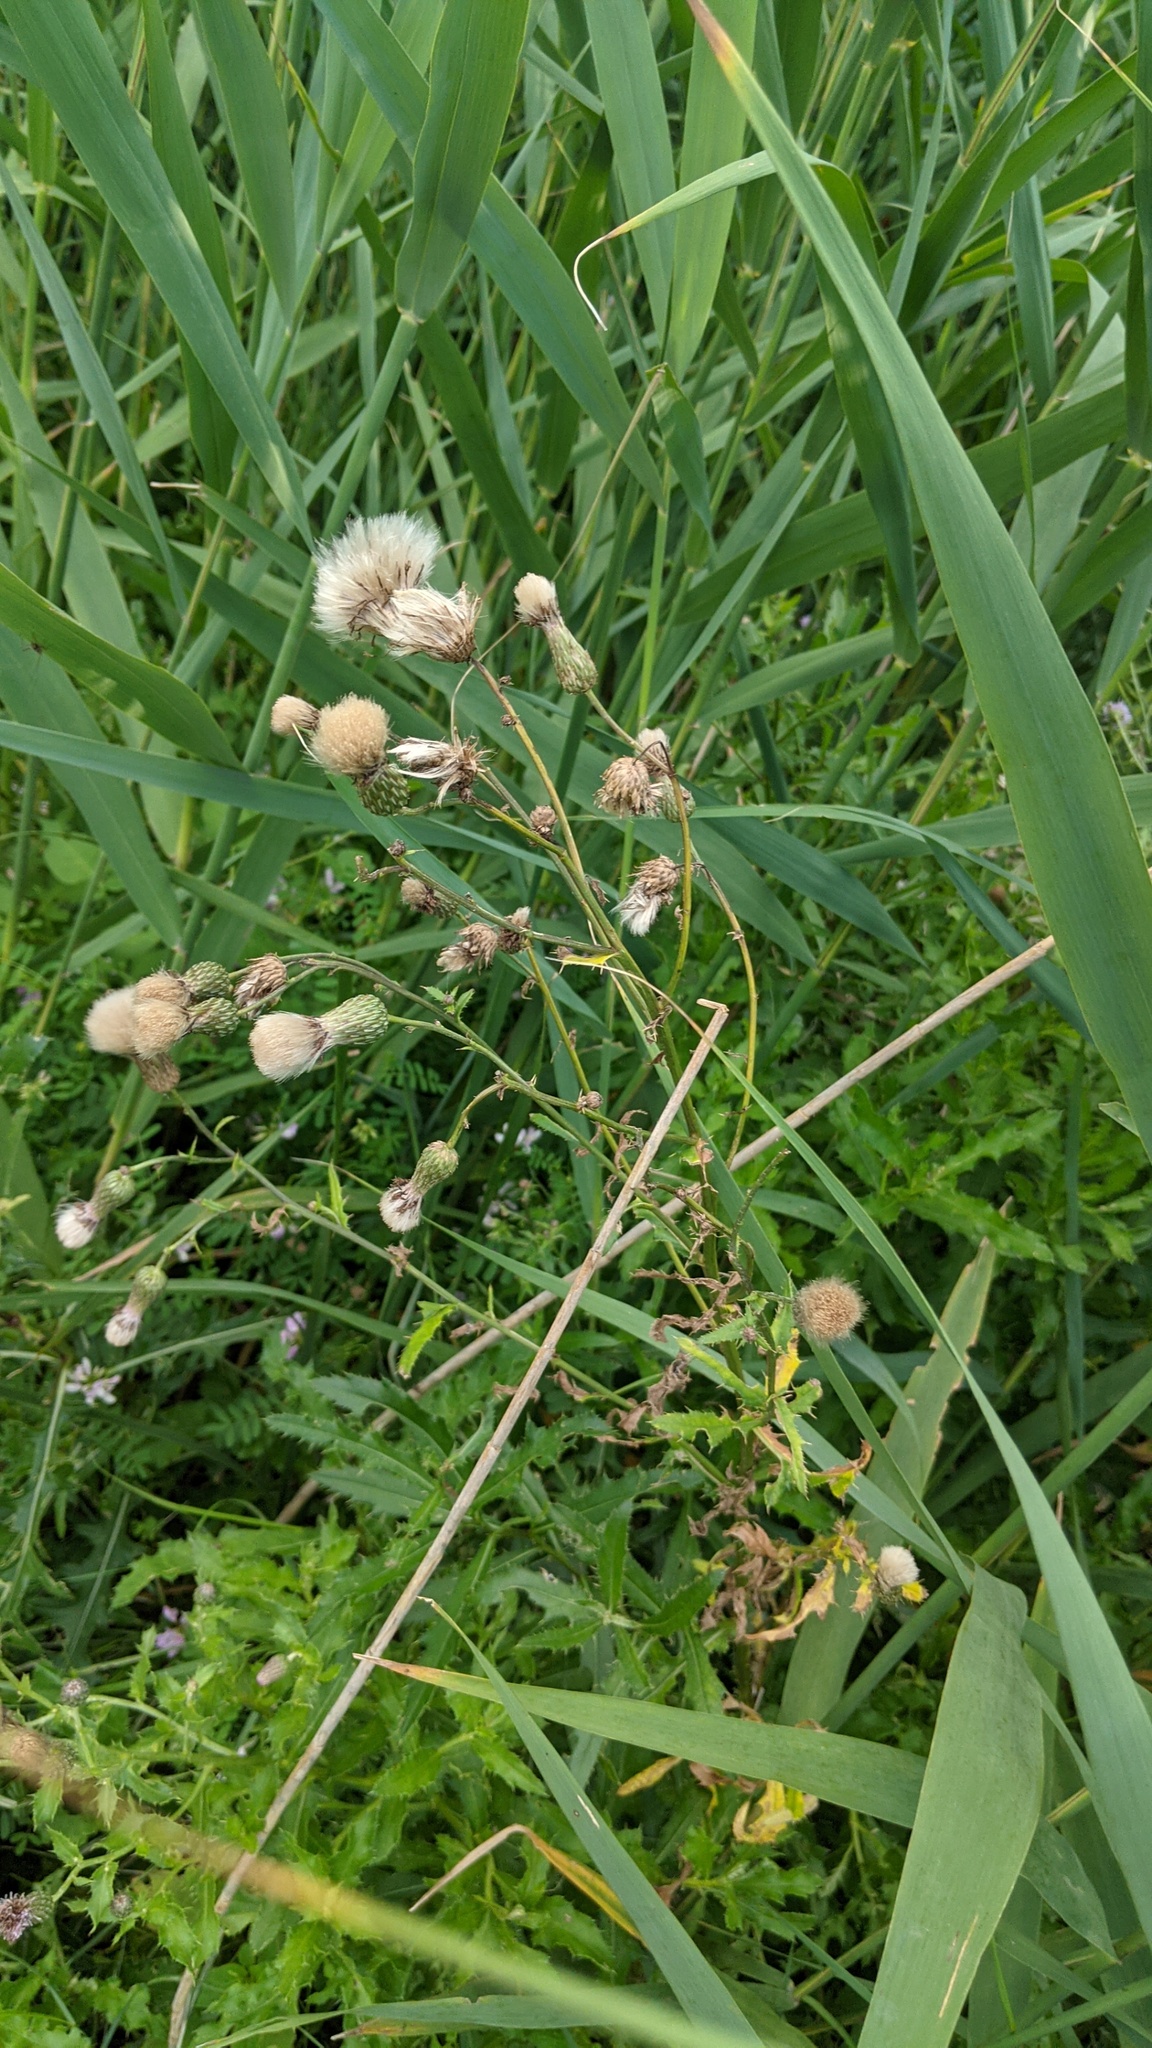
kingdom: Plantae
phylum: Tracheophyta
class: Magnoliopsida
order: Asterales
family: Asteraceae
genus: Cirsium
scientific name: Cirsium arvense
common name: Creeping thistle
